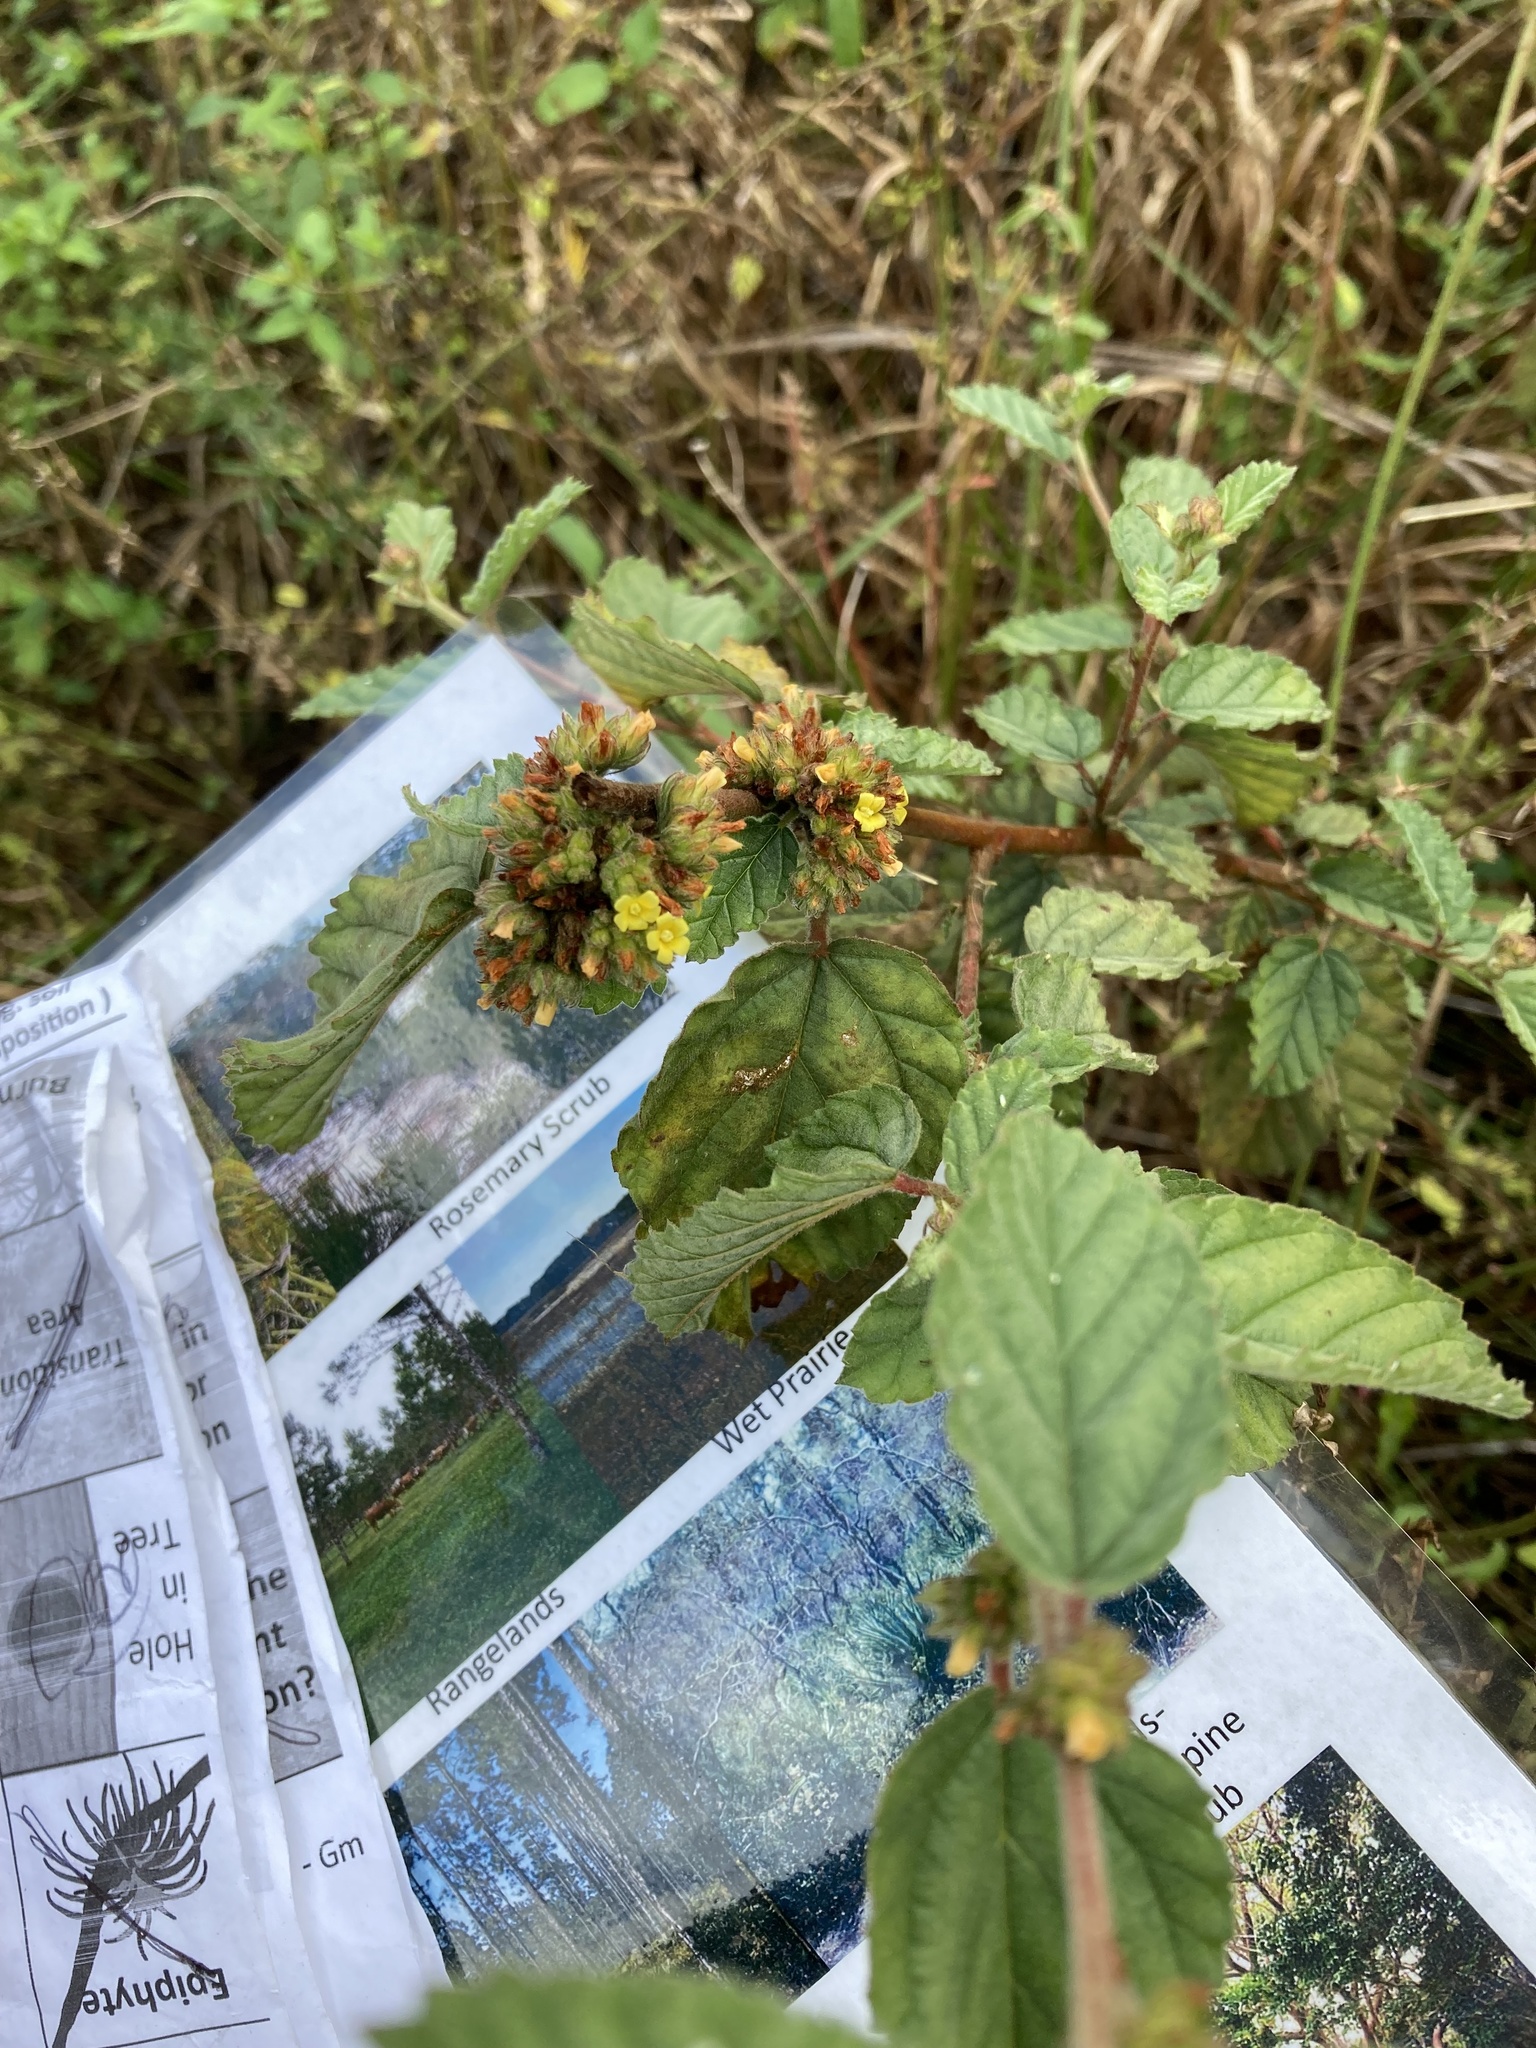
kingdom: Plantae
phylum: Tracheophyta
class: Magnoliopsida
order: Malvales
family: Malvaceae
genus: Waltheria
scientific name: Waltheria indica
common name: Leather-coat
